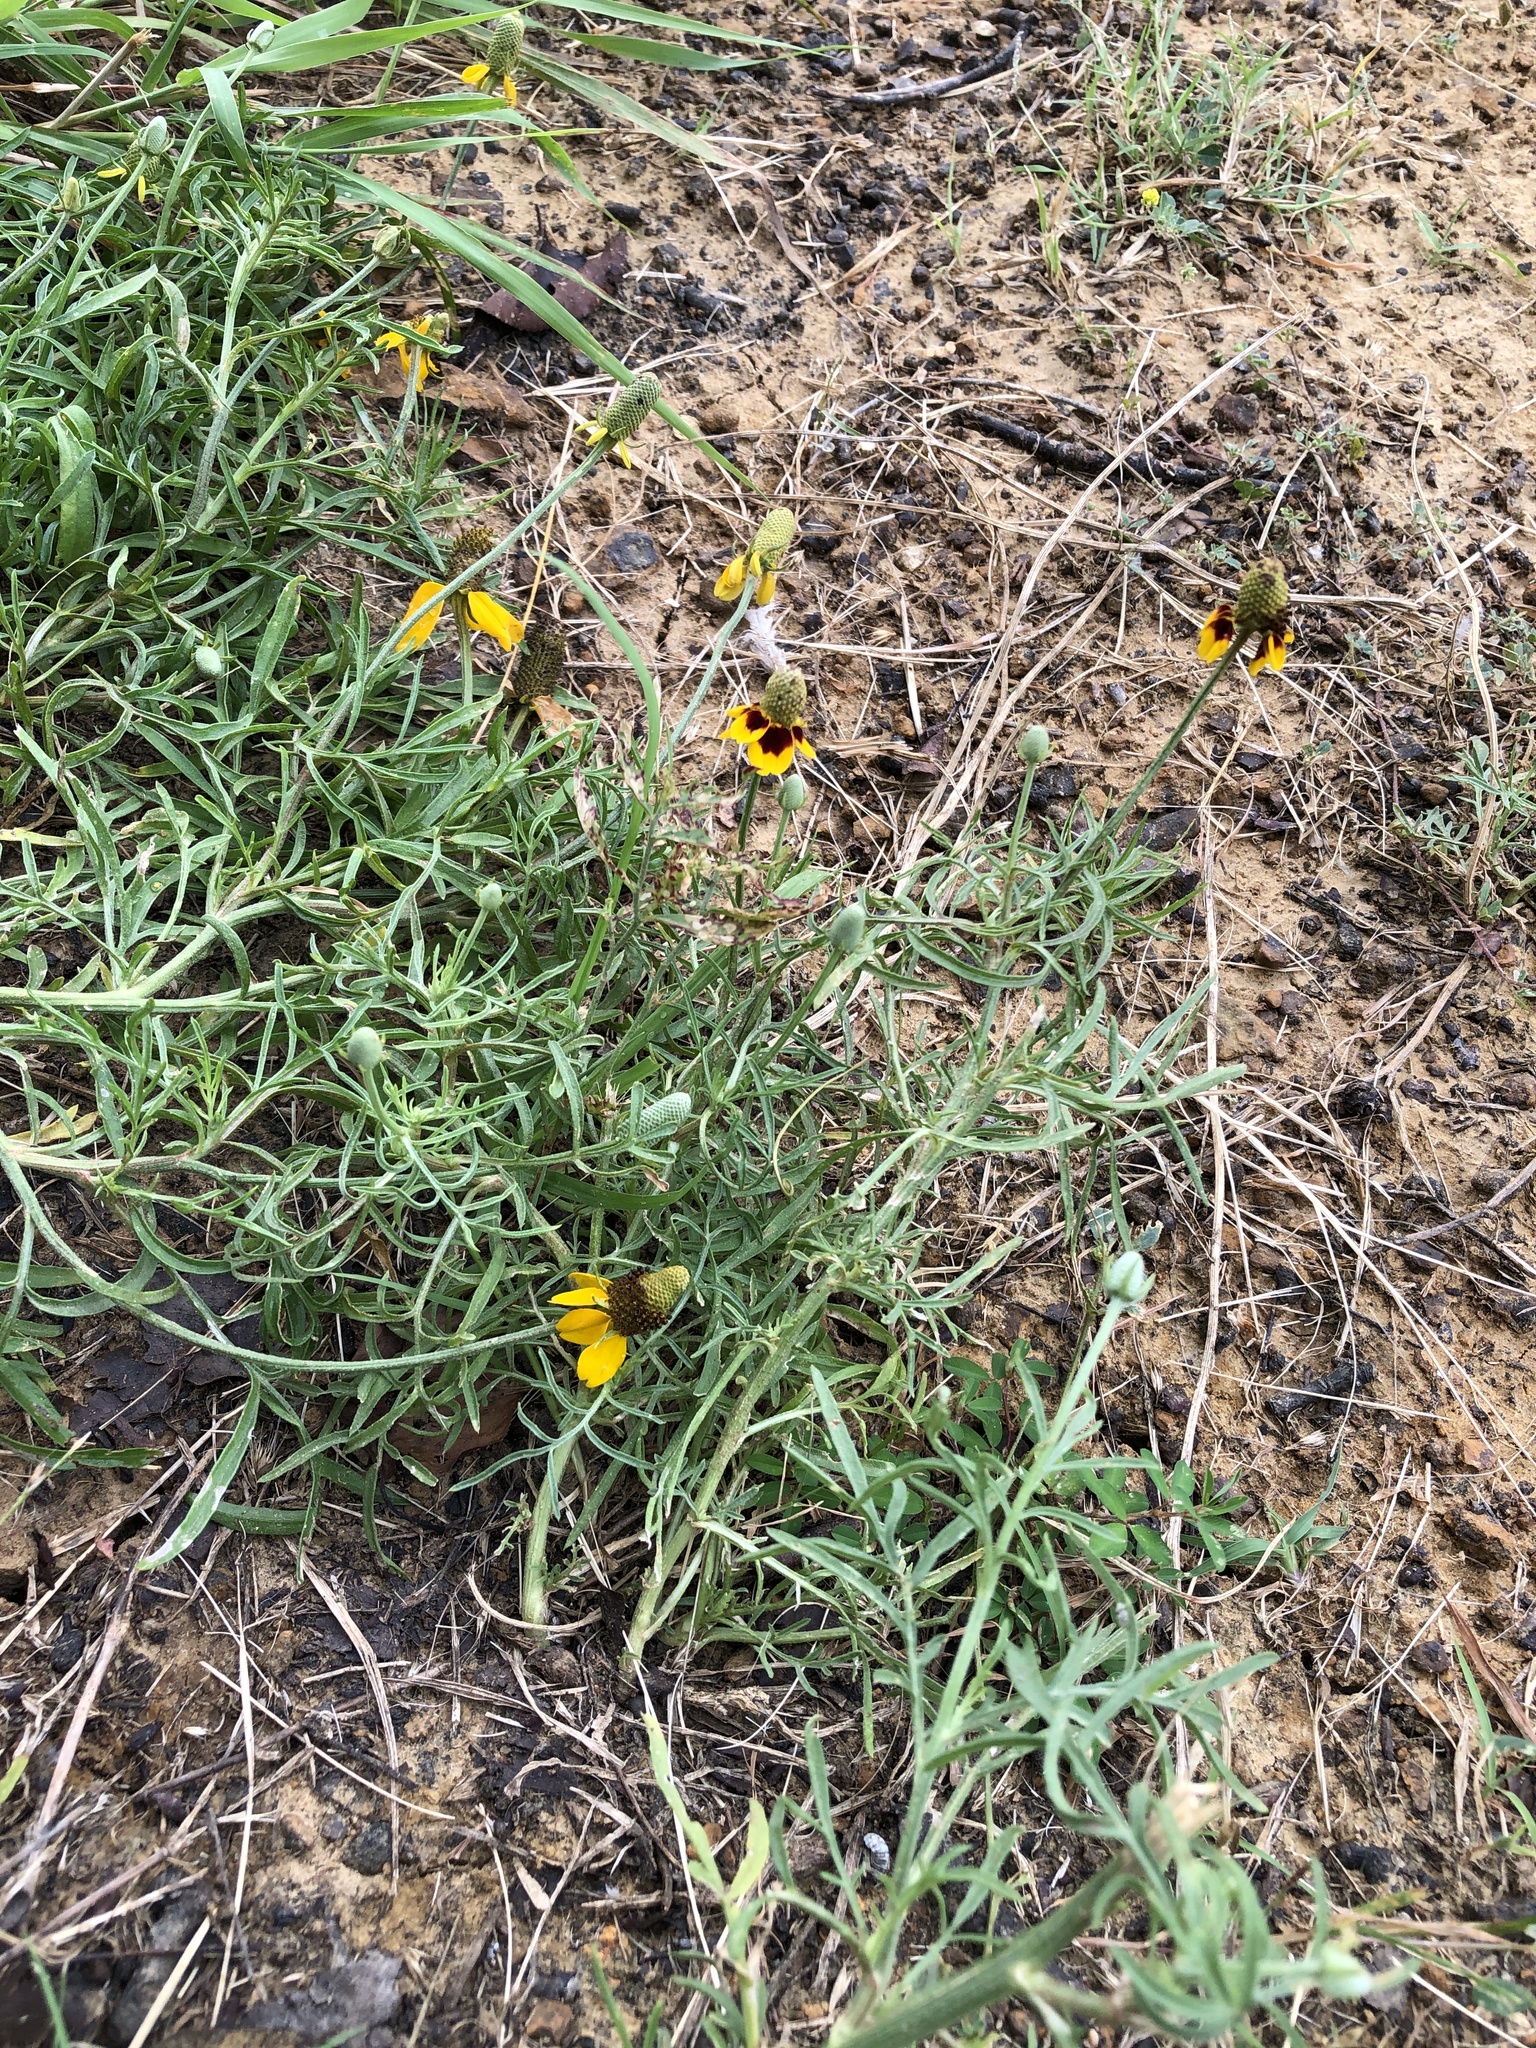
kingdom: Plantae
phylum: Tracheophyta
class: Magnoliopsida
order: Asterales
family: Asteraceae
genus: Ratibida
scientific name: Ratibida columnifera
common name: Prairie coneflower
